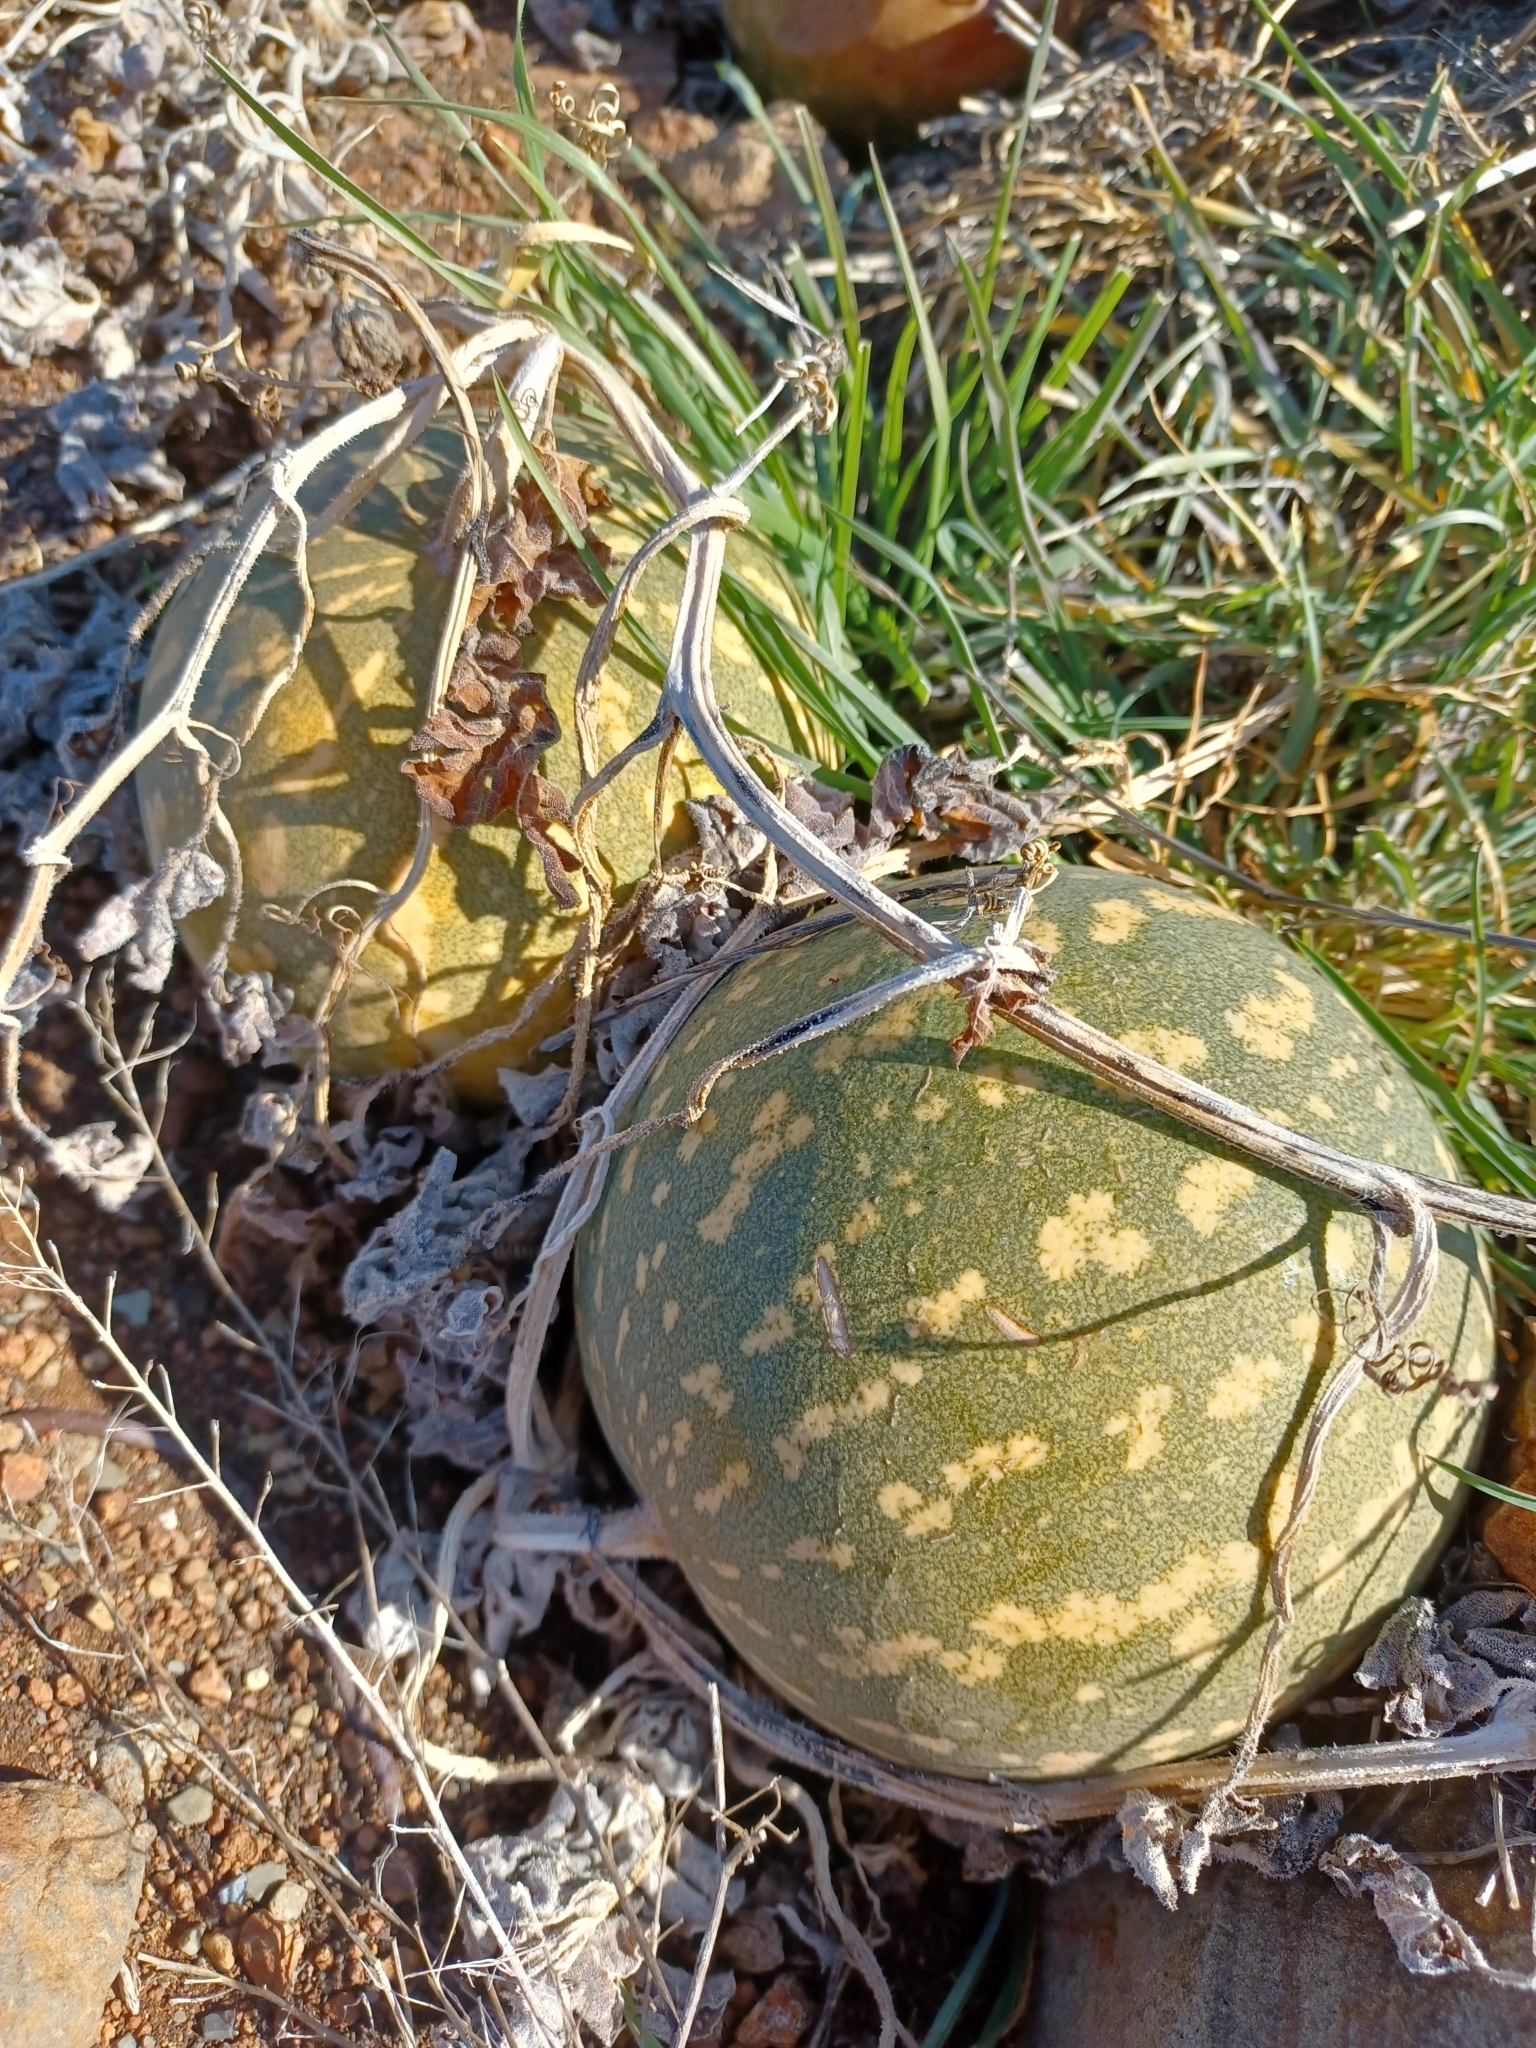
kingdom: Plantae
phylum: Tracheophyta
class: Magnoliopsida
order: Cucurbitales
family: Cucurbitaceae
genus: Citrullus
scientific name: Citrullus amarus
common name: Fodder-melon
